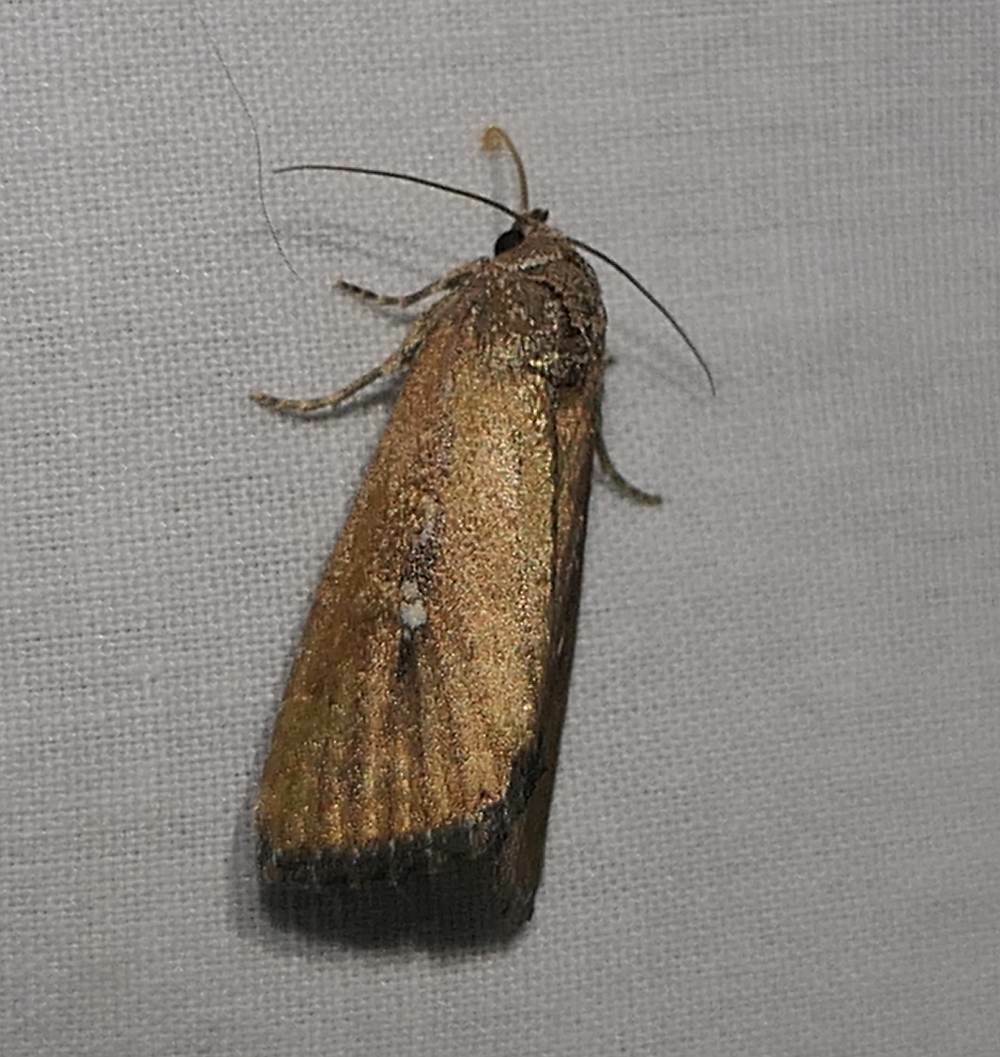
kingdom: Animalia
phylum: Arthropoda
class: Insecta
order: Lepidoptera
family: Noctuidae
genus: Condica
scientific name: Condica videns
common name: White-dotted groundling
